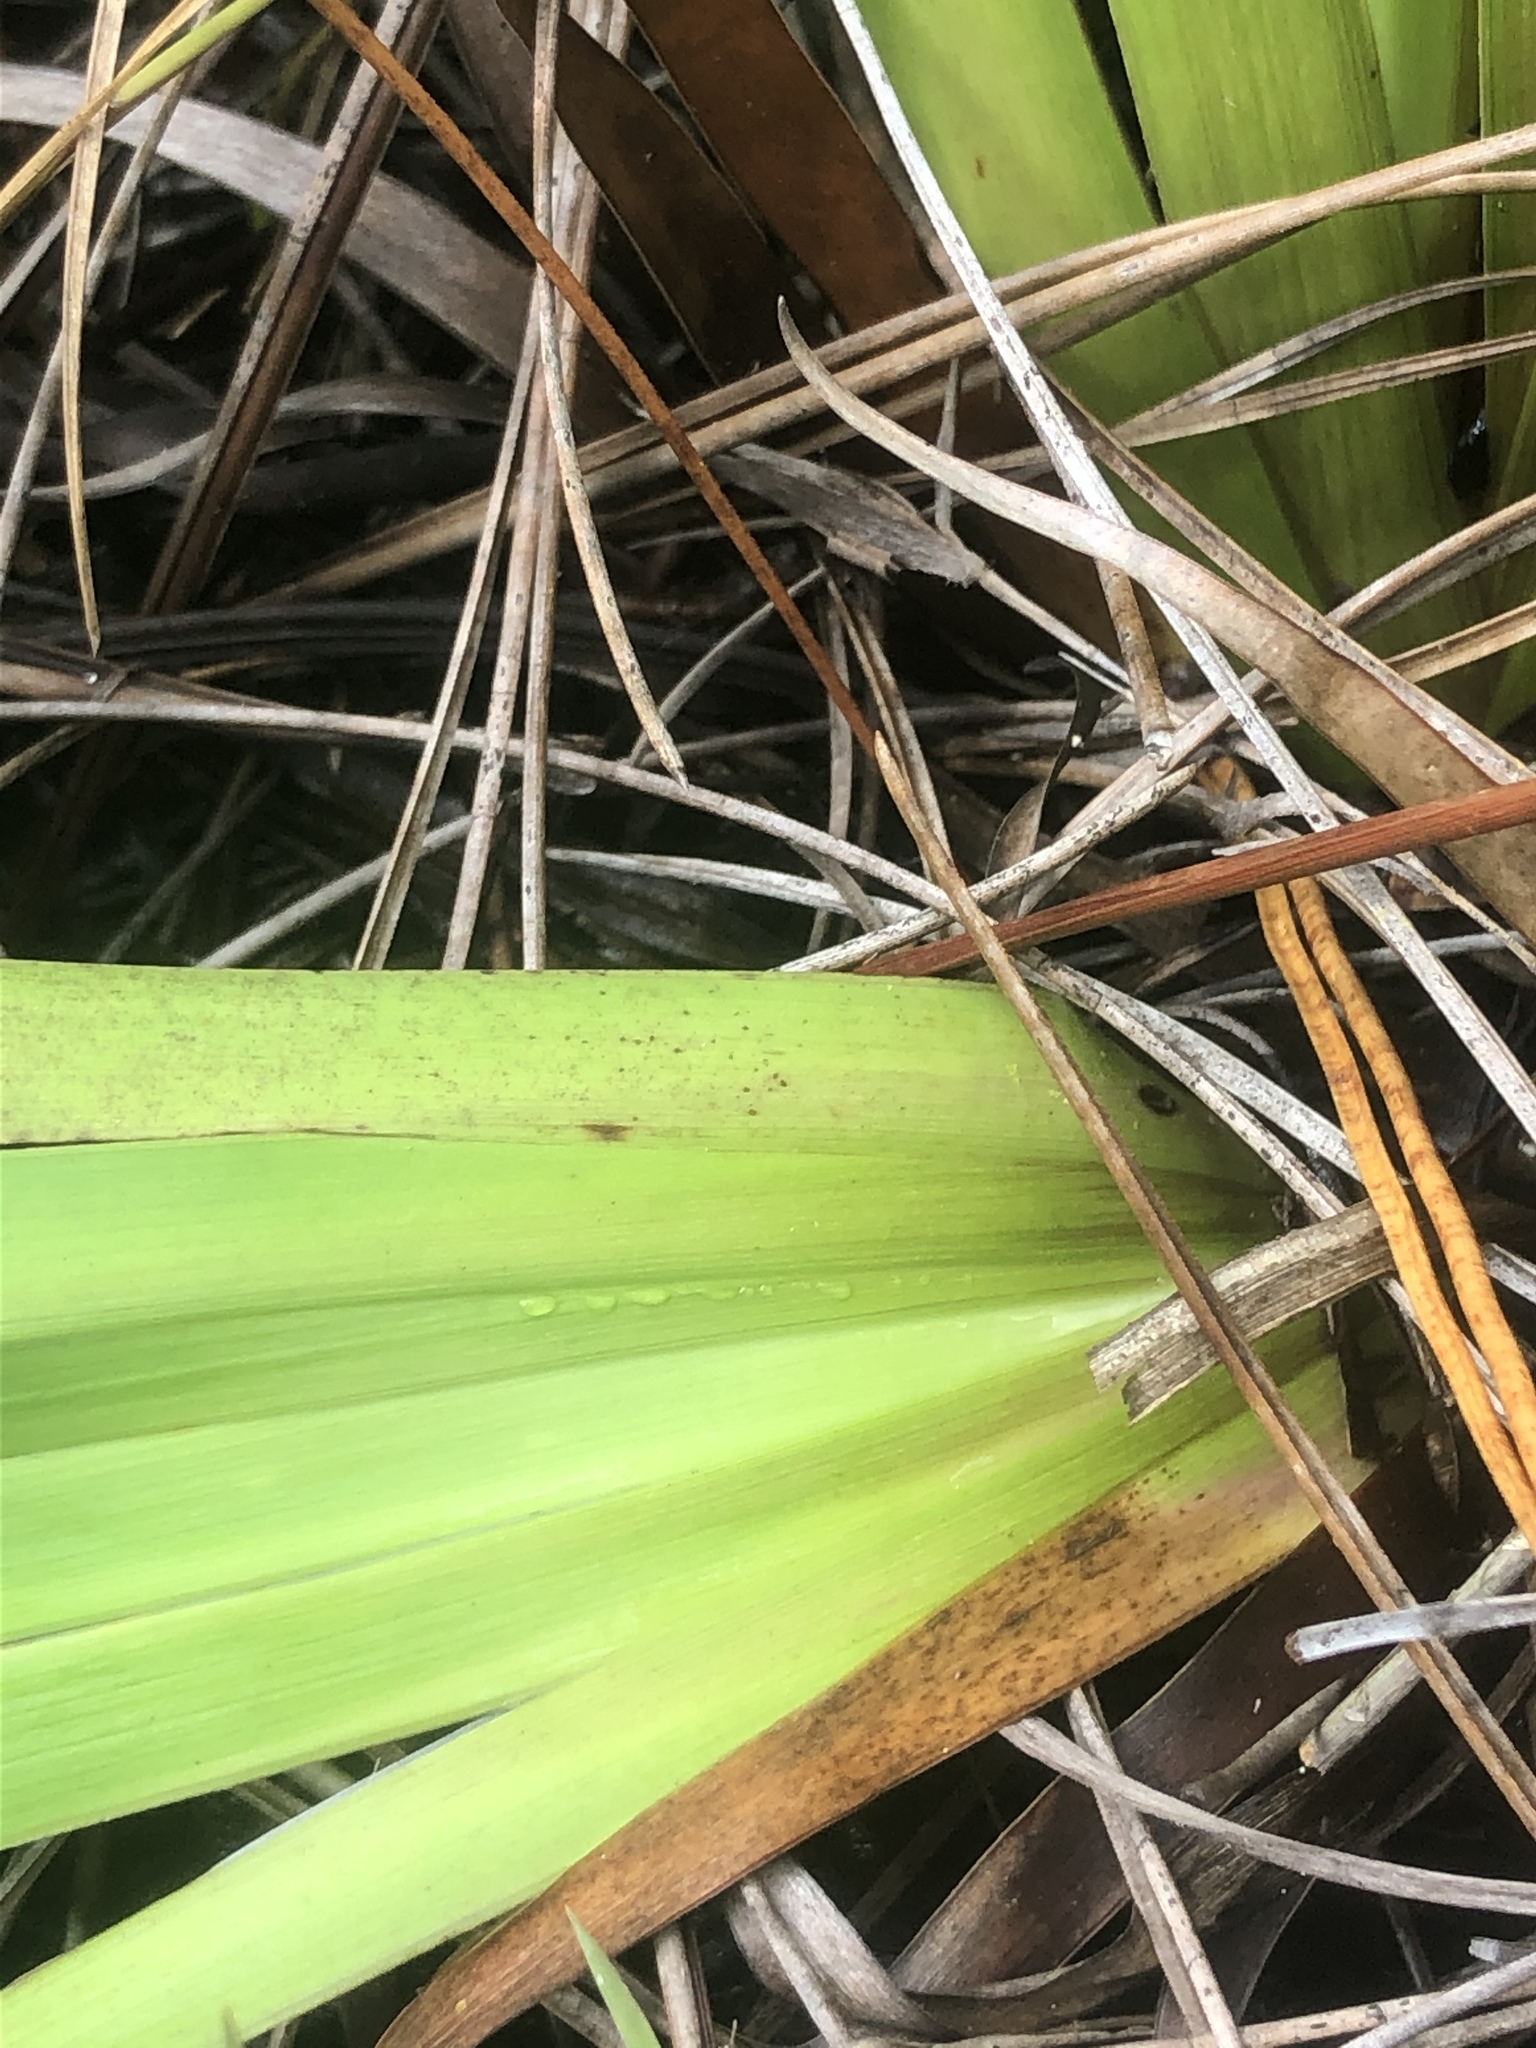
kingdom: Plantae
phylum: Tracheophyta
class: Liliopsida
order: Poales
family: Xyridaceae
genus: Xyris
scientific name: Xyris ambigua
